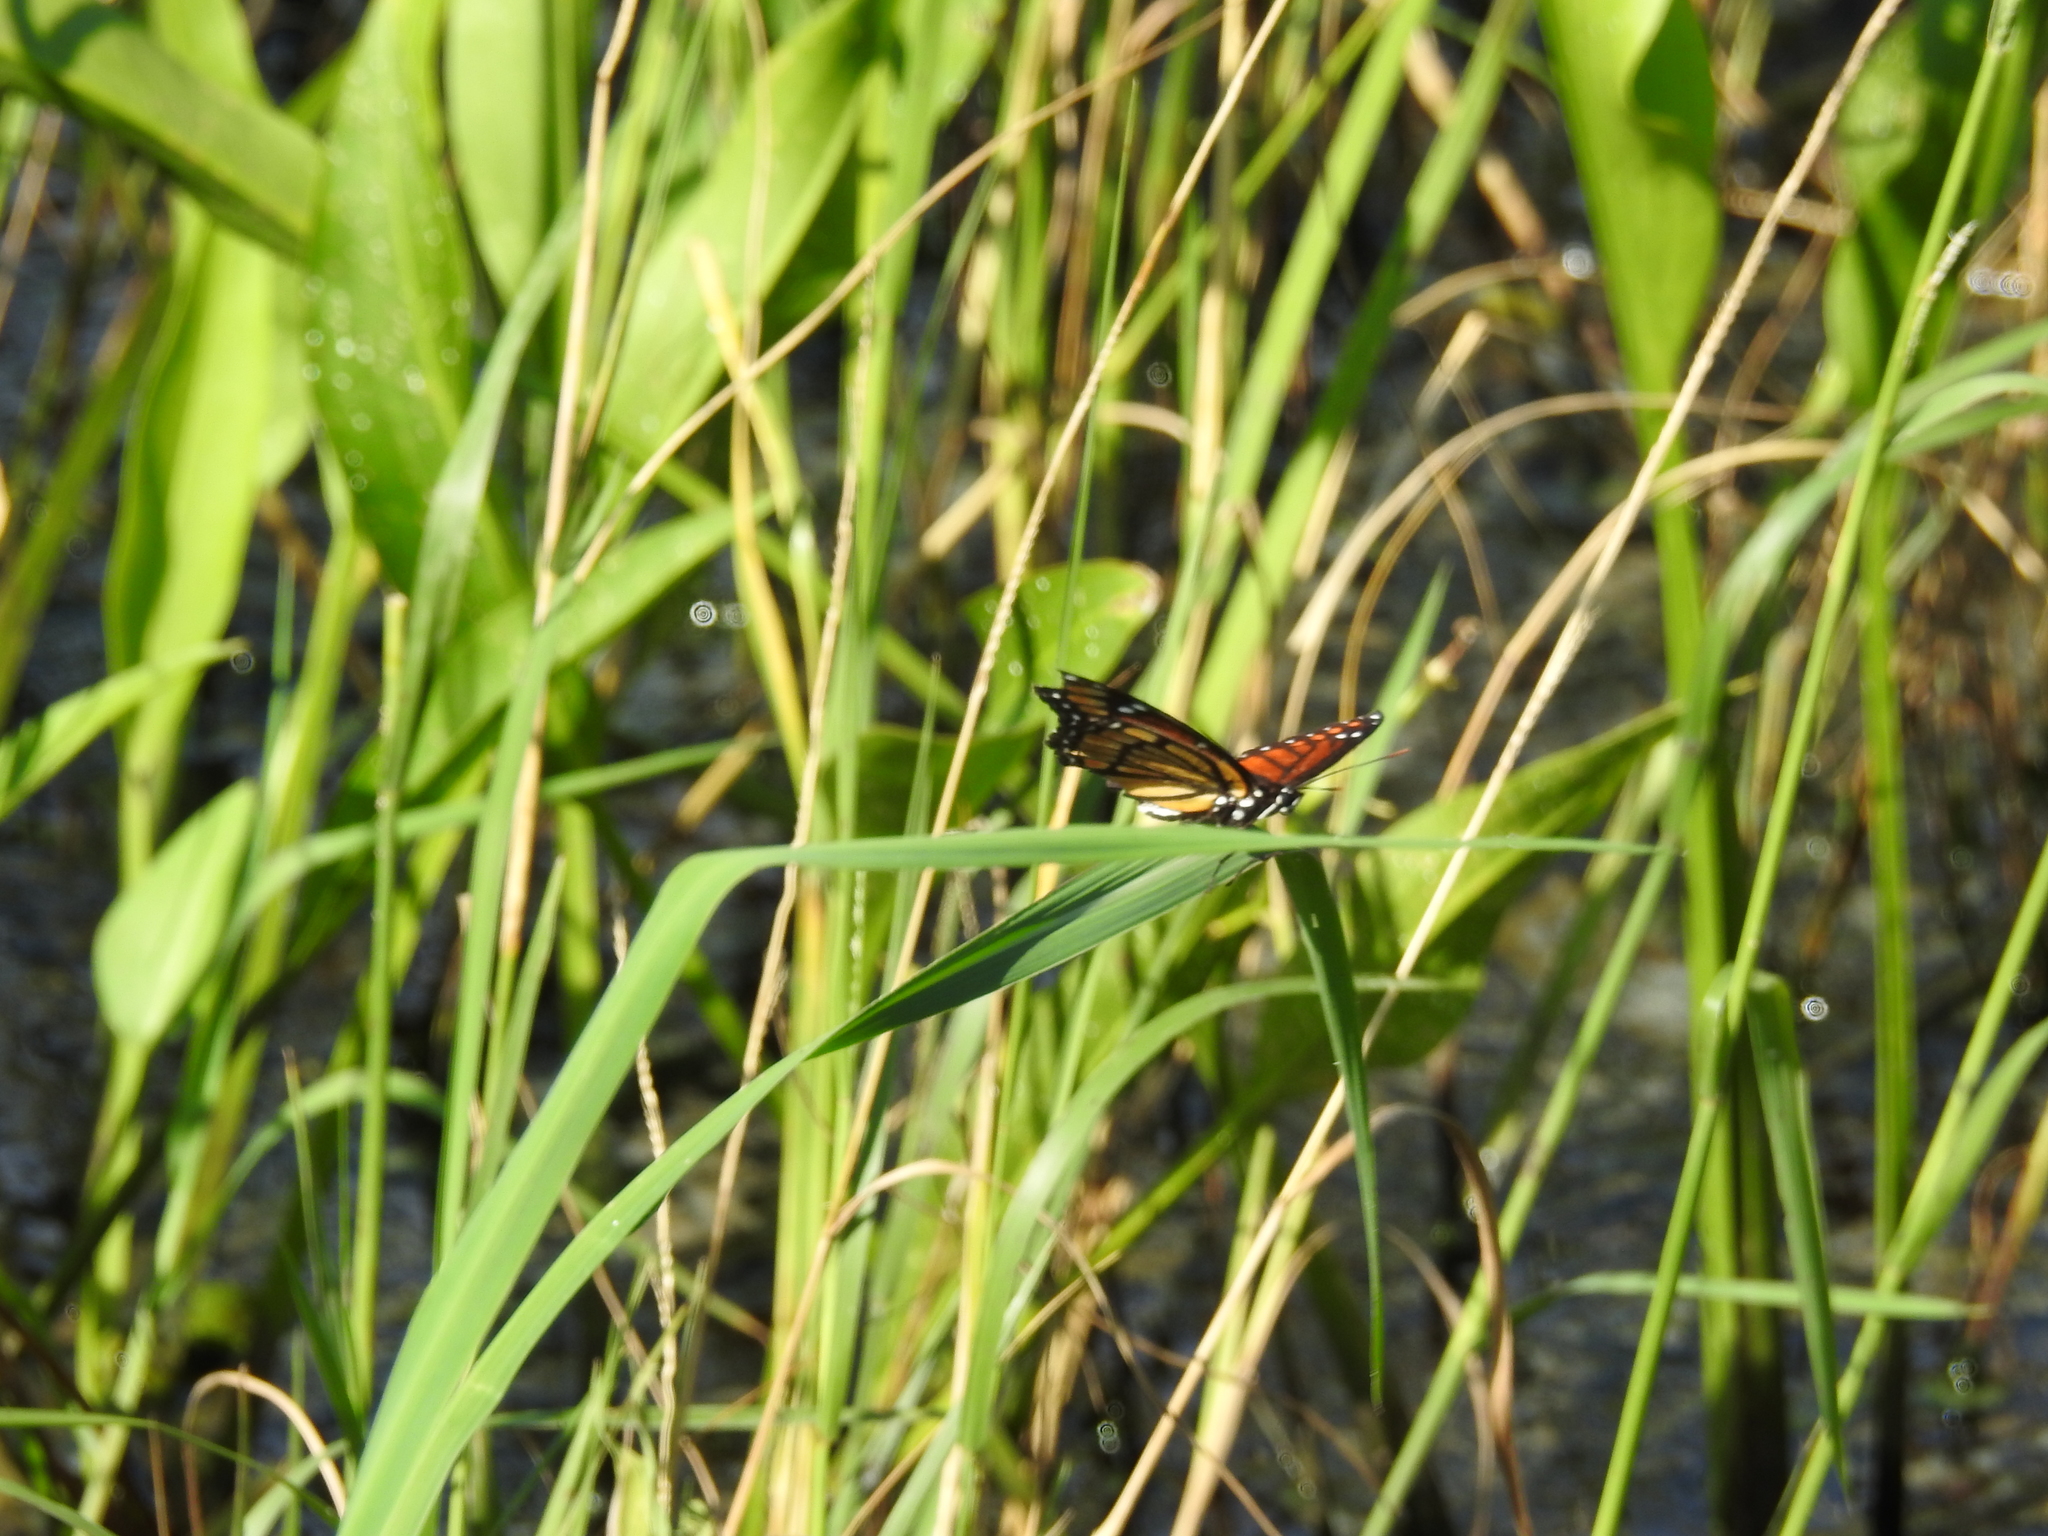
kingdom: Animalia
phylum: Arthropoda
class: Insecta
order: Lepidoptera
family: Nymphalidae
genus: Limenitis
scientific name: Limenitis archippus
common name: Viceroy
